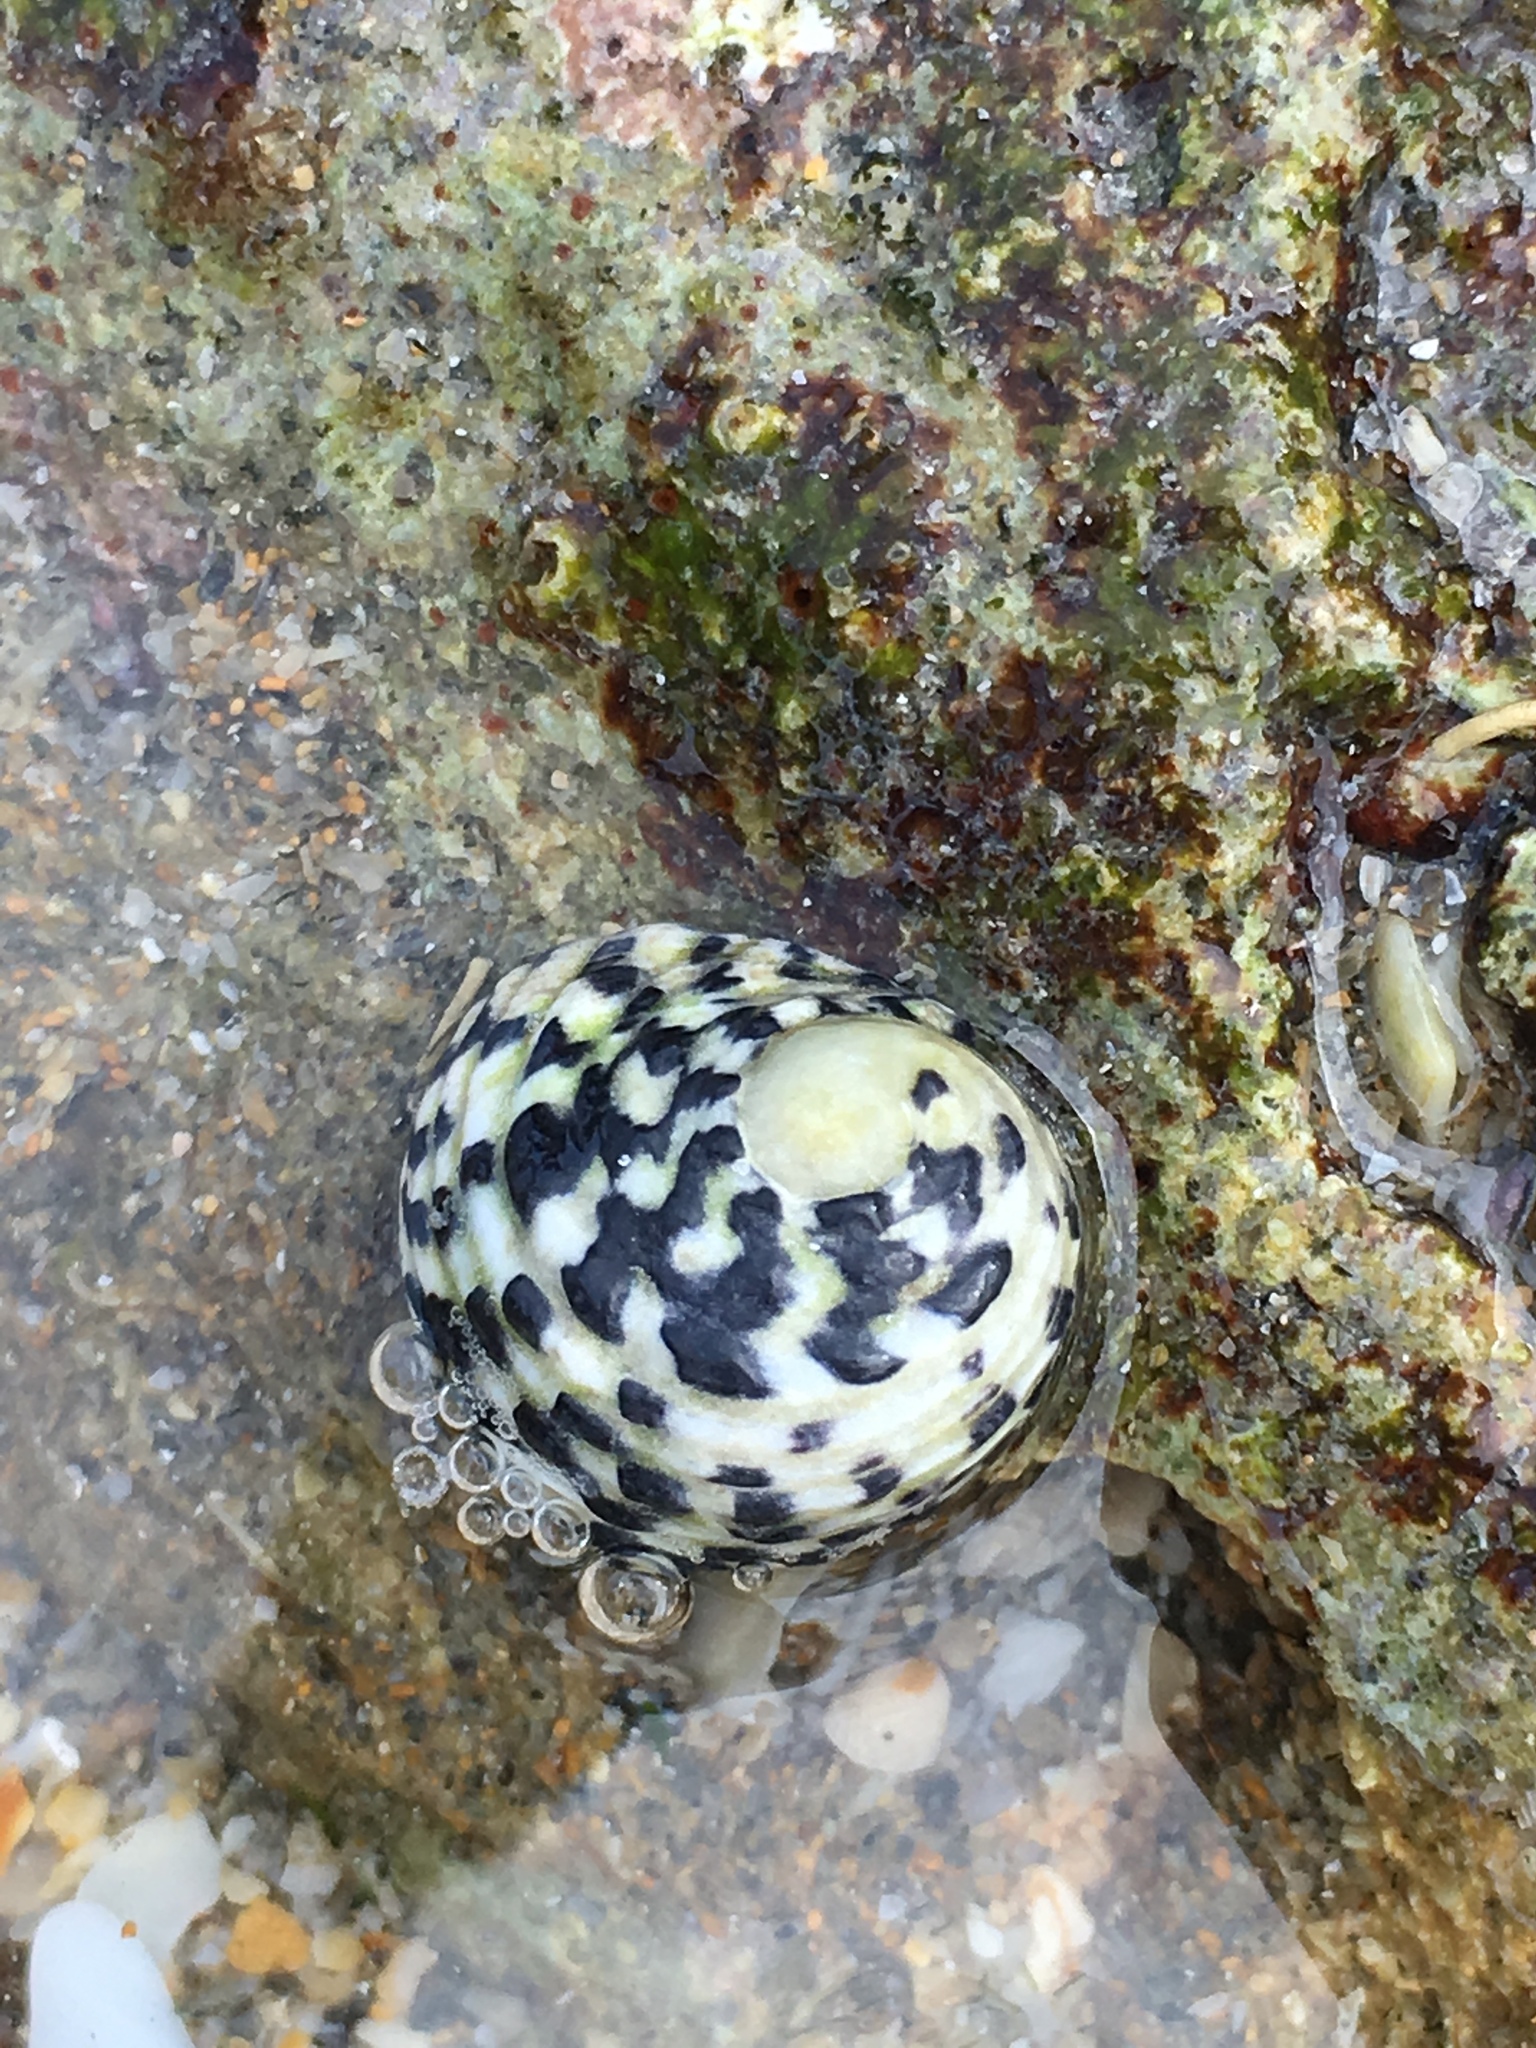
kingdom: Animalia
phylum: Mollusca
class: Gastropoda
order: Cycloneritida
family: Neritidae
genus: Nerita
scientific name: Nerita tessellata
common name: Checkered nerite
